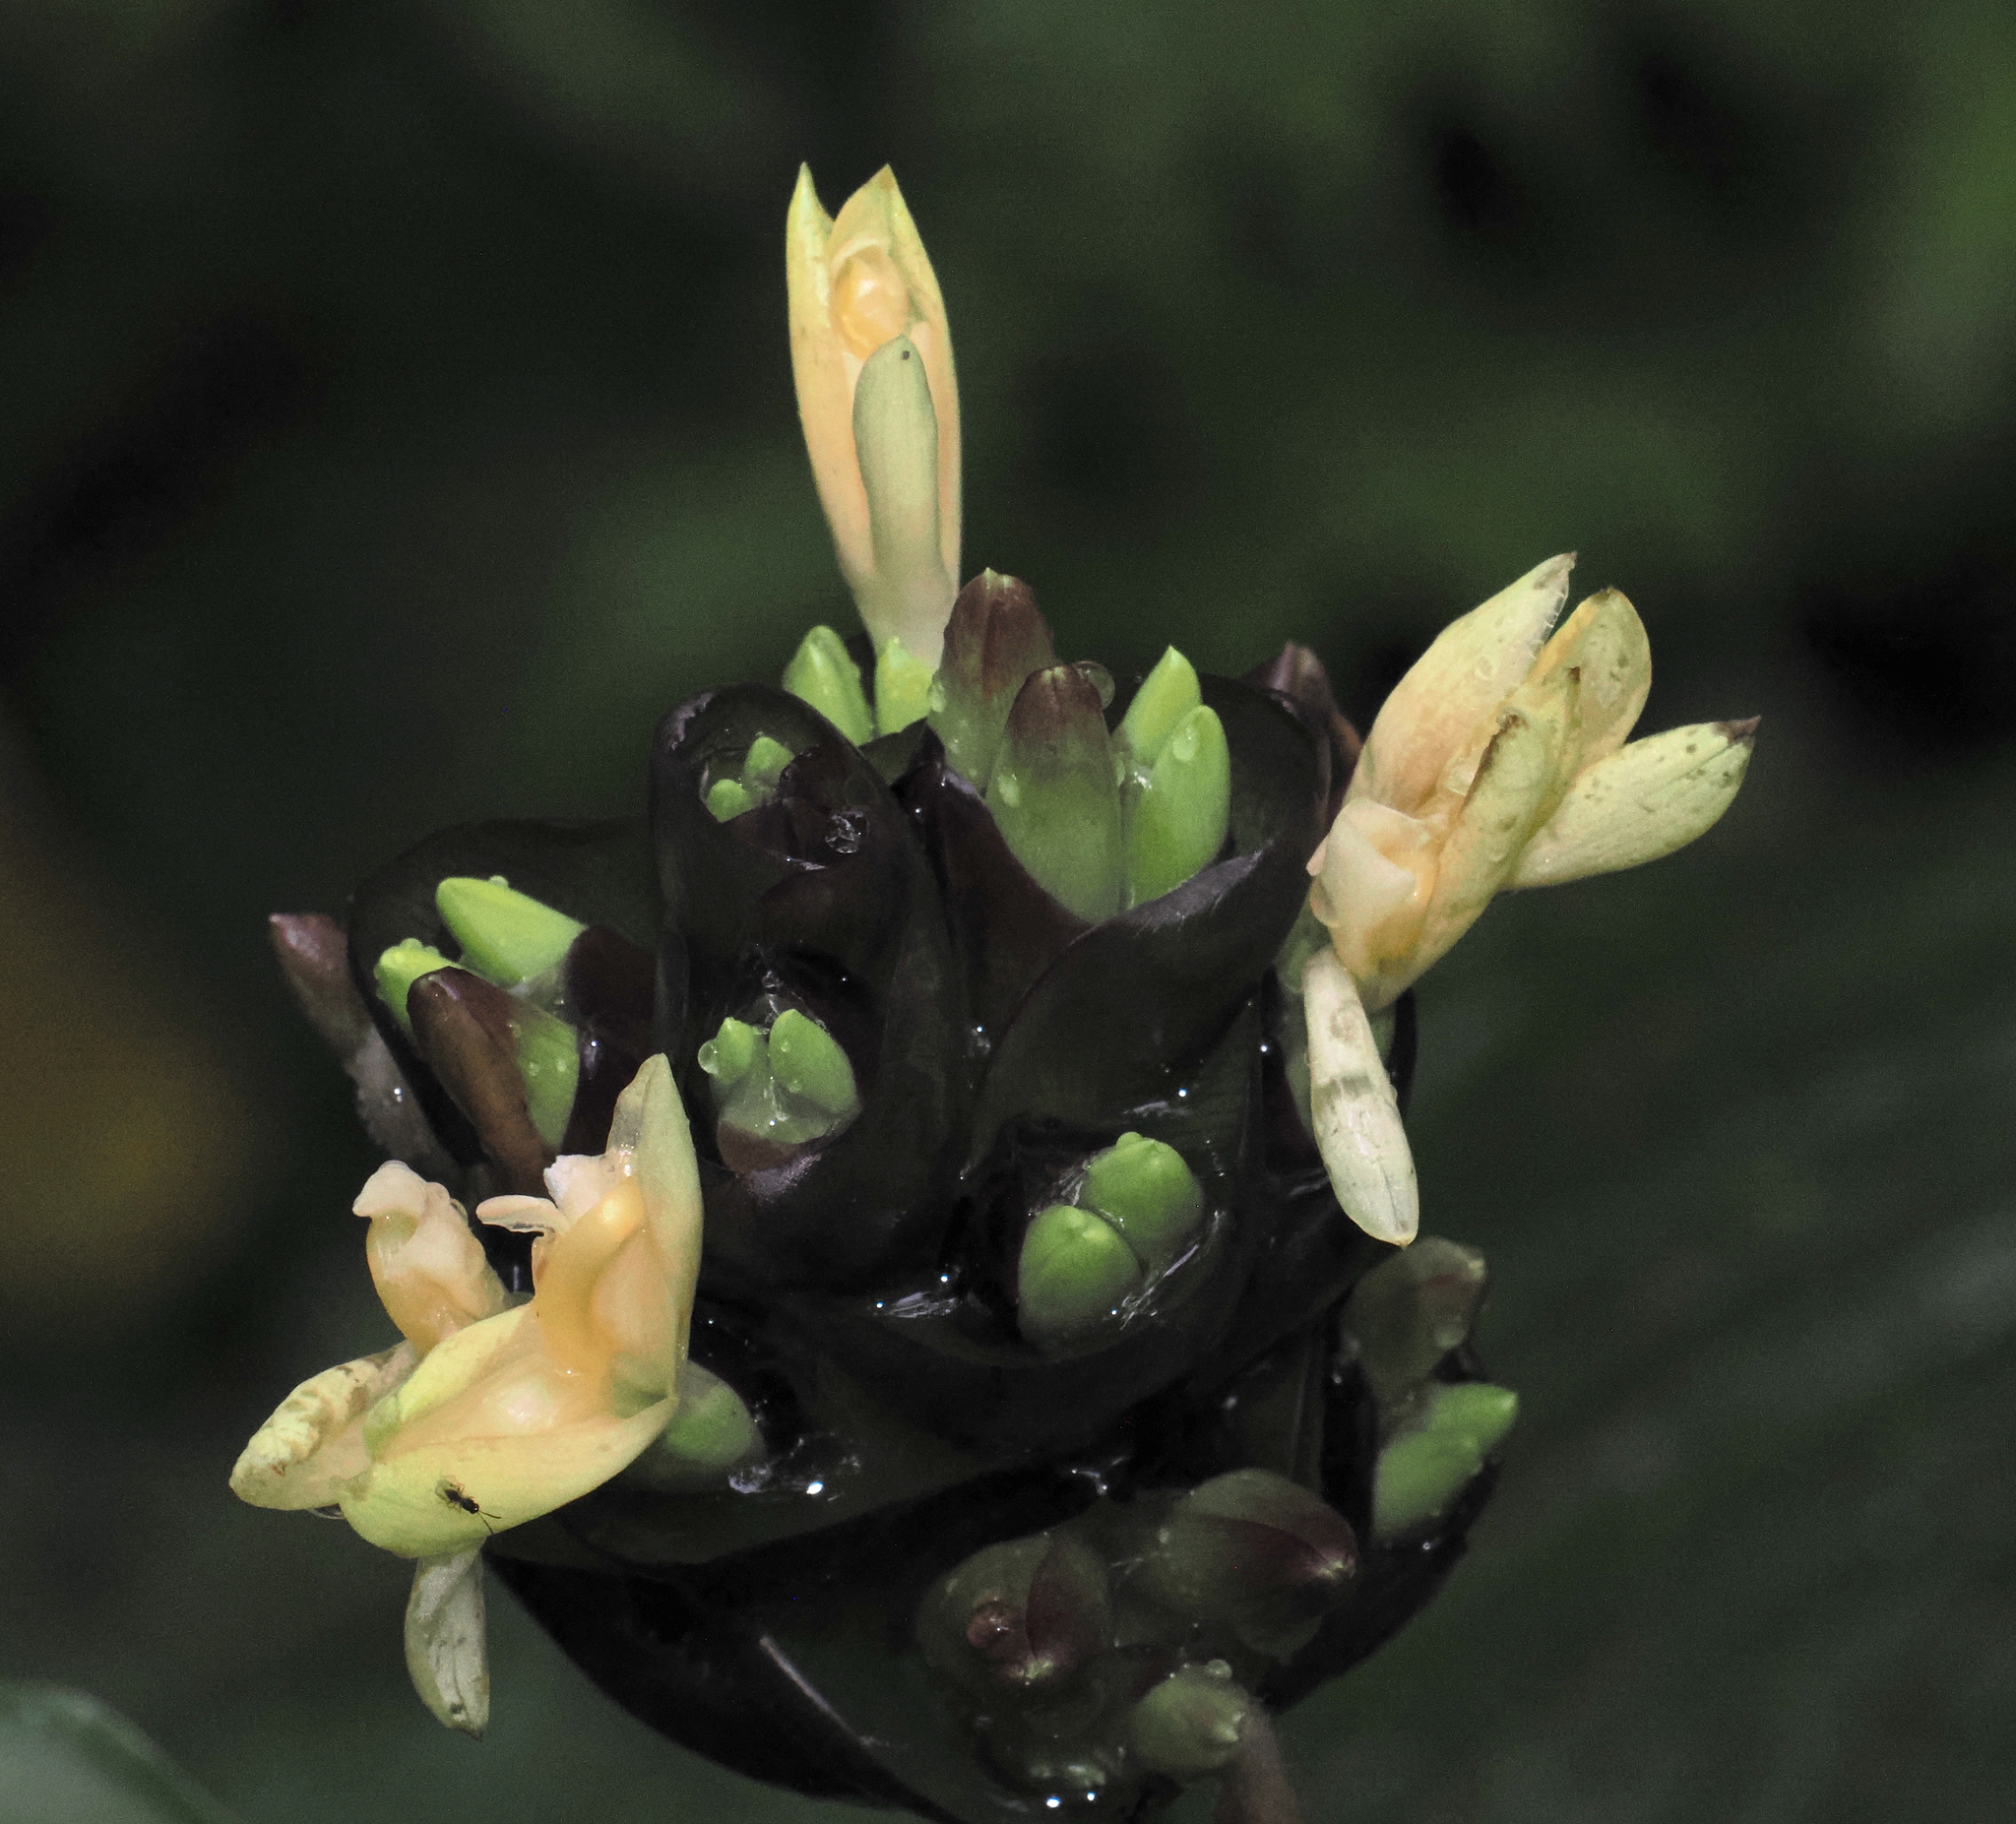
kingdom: Plantae
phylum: Tracheophyta
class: Liliopsida
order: Zingiberales
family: Marantaceae
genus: Calathea
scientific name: Calathea lutea
